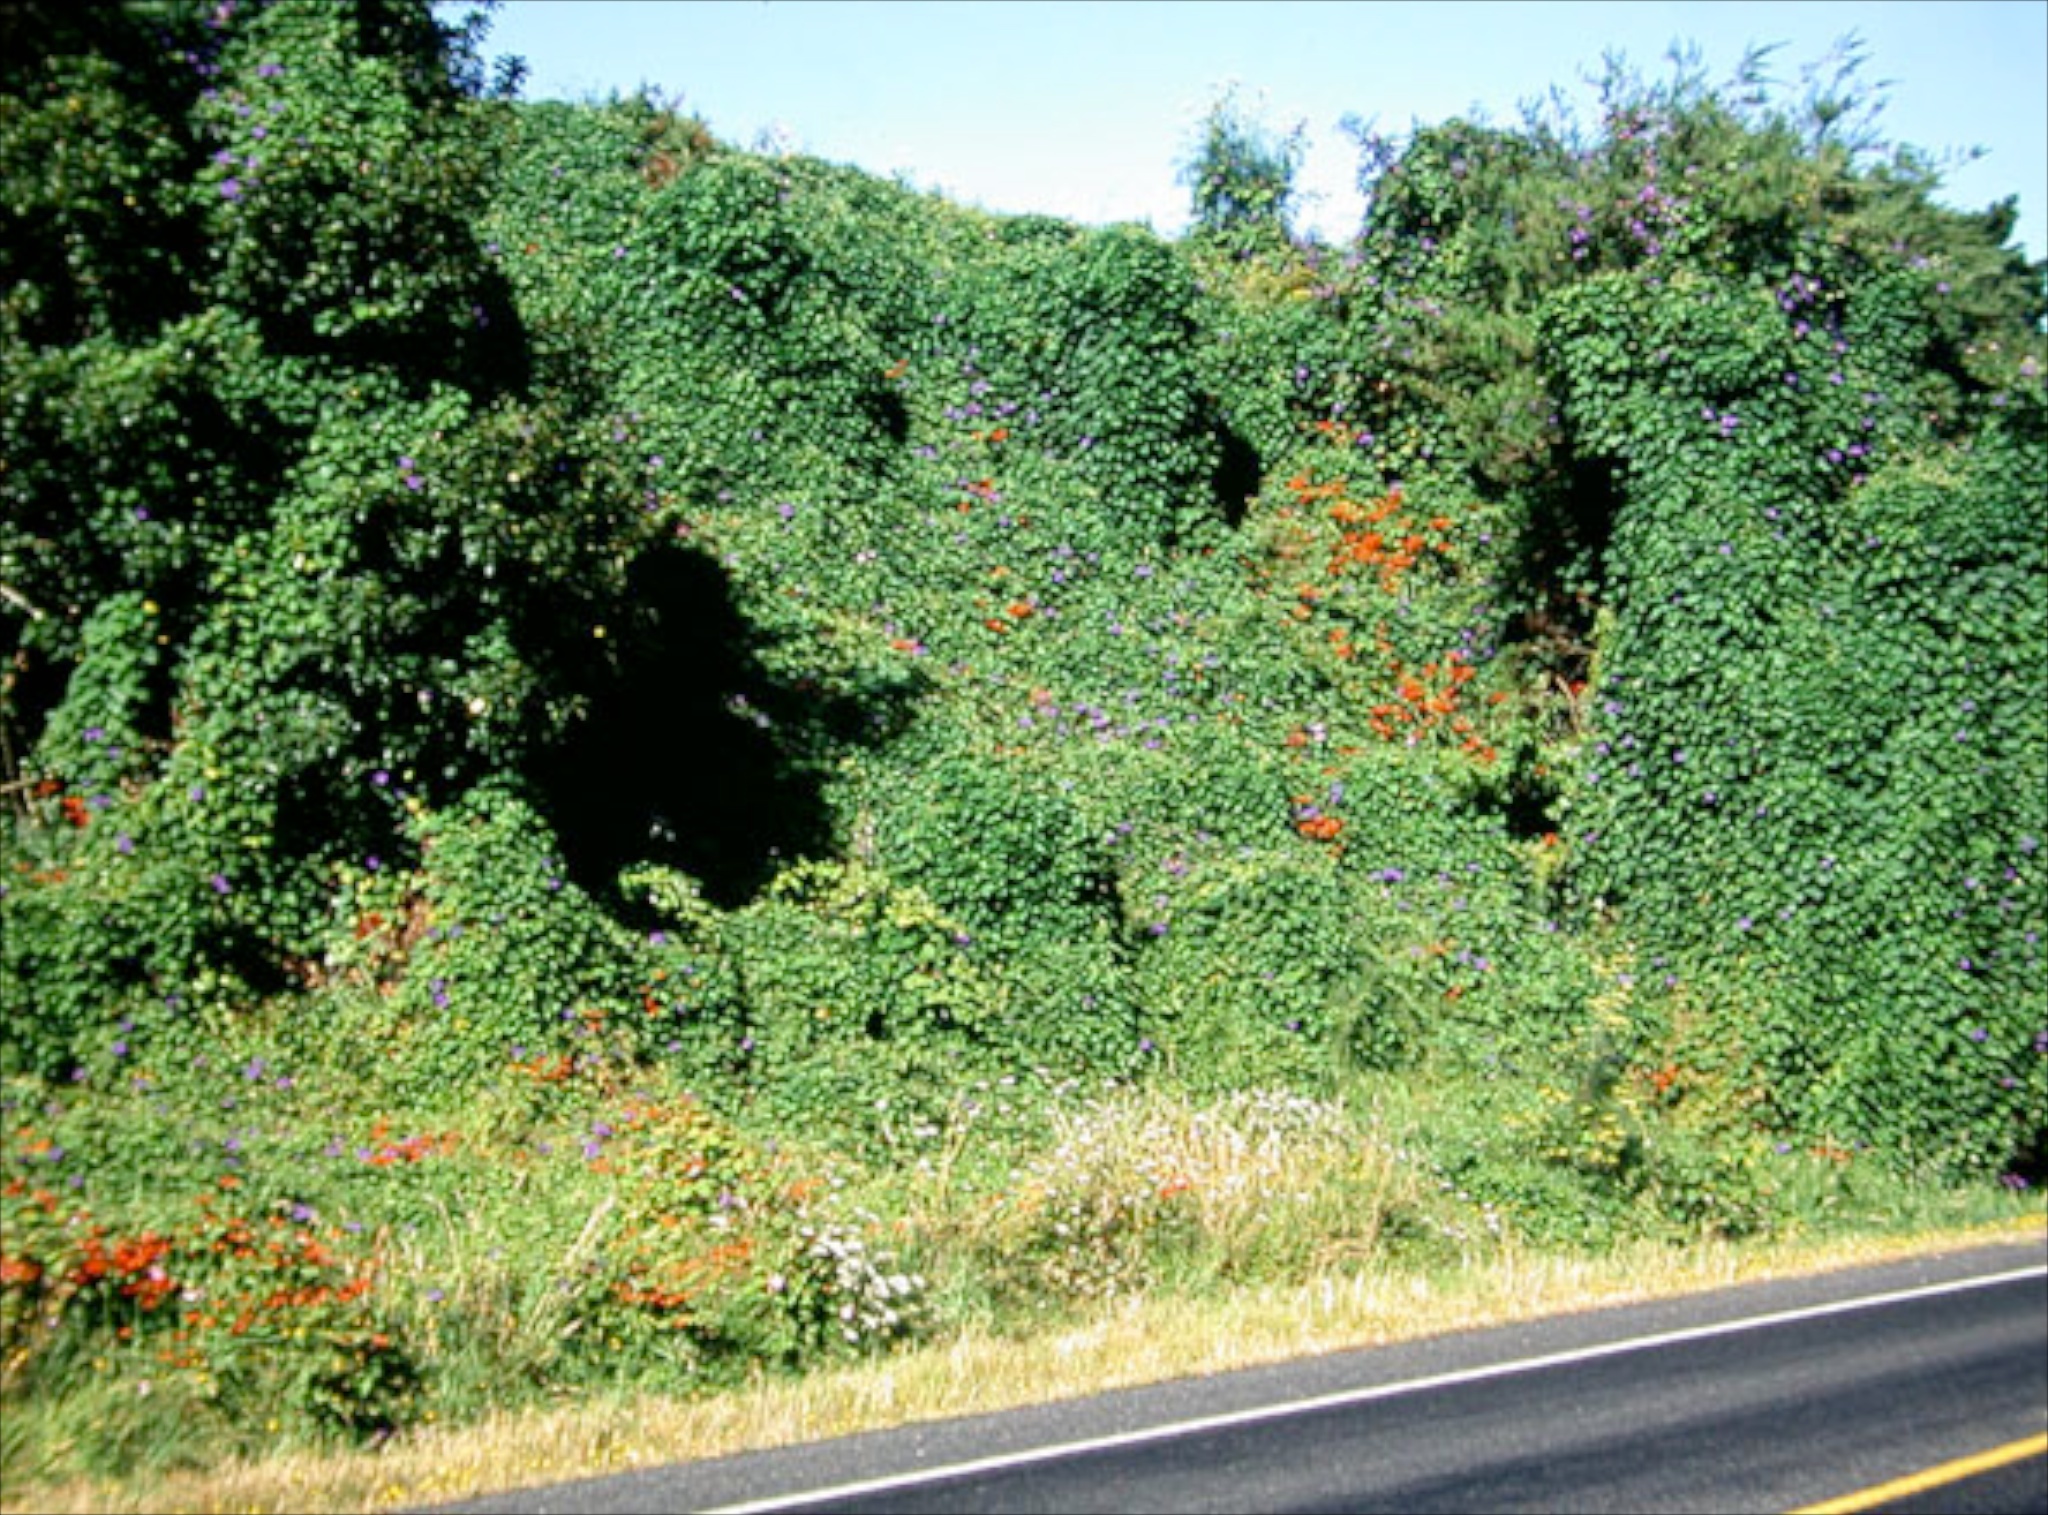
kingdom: Plantae
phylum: Tracheophyta
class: Magnoliopsida
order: Solanales
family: Convolvulaceae
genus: Ipomoea
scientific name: Ipomoea indica
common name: Blue dawnflower
